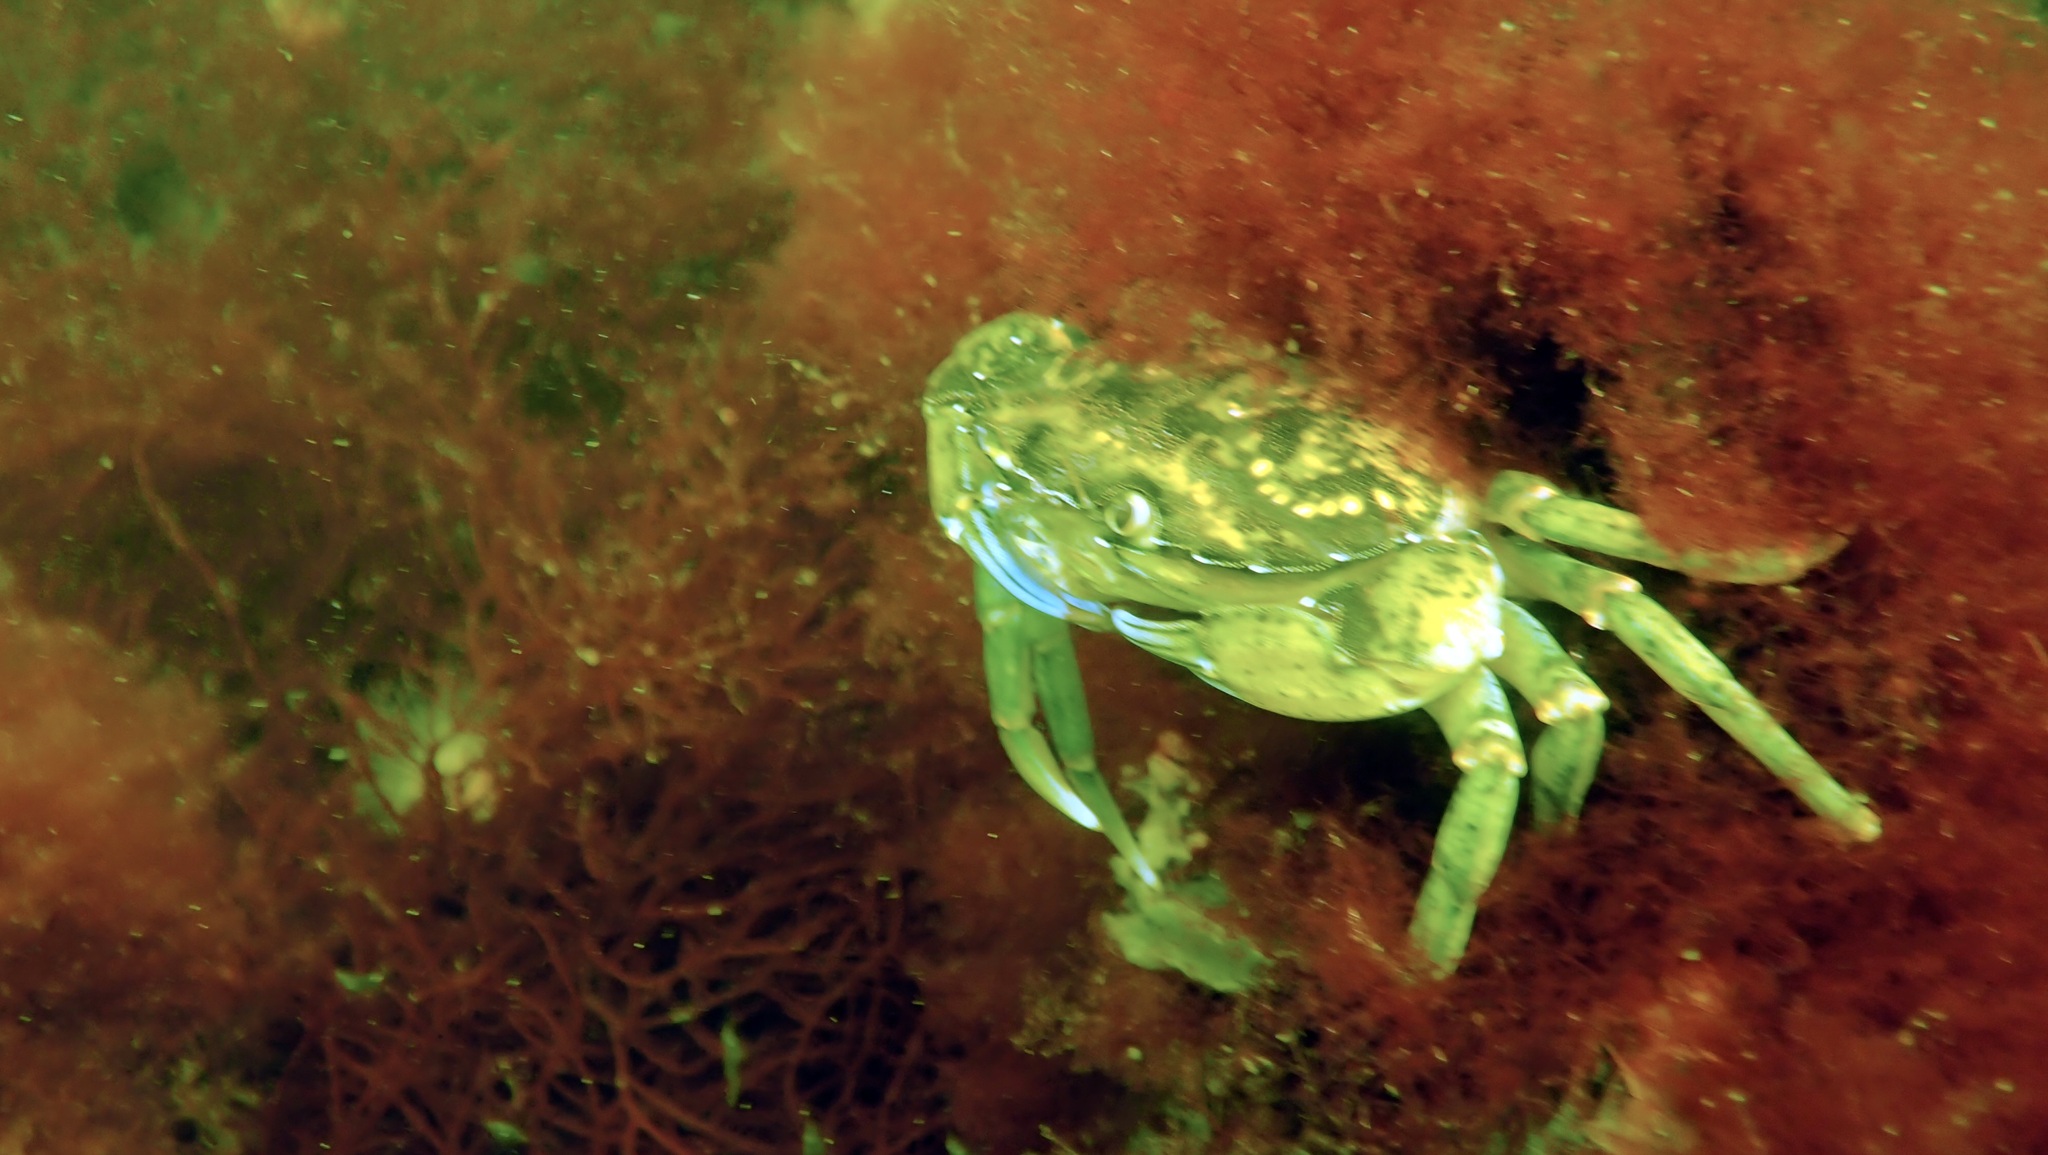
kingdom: Animalia
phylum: Arthropoda
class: Malacostraca
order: Decapoda
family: Carcinidae
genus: Carcinus
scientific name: Carcinus maenas
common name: European green crab
